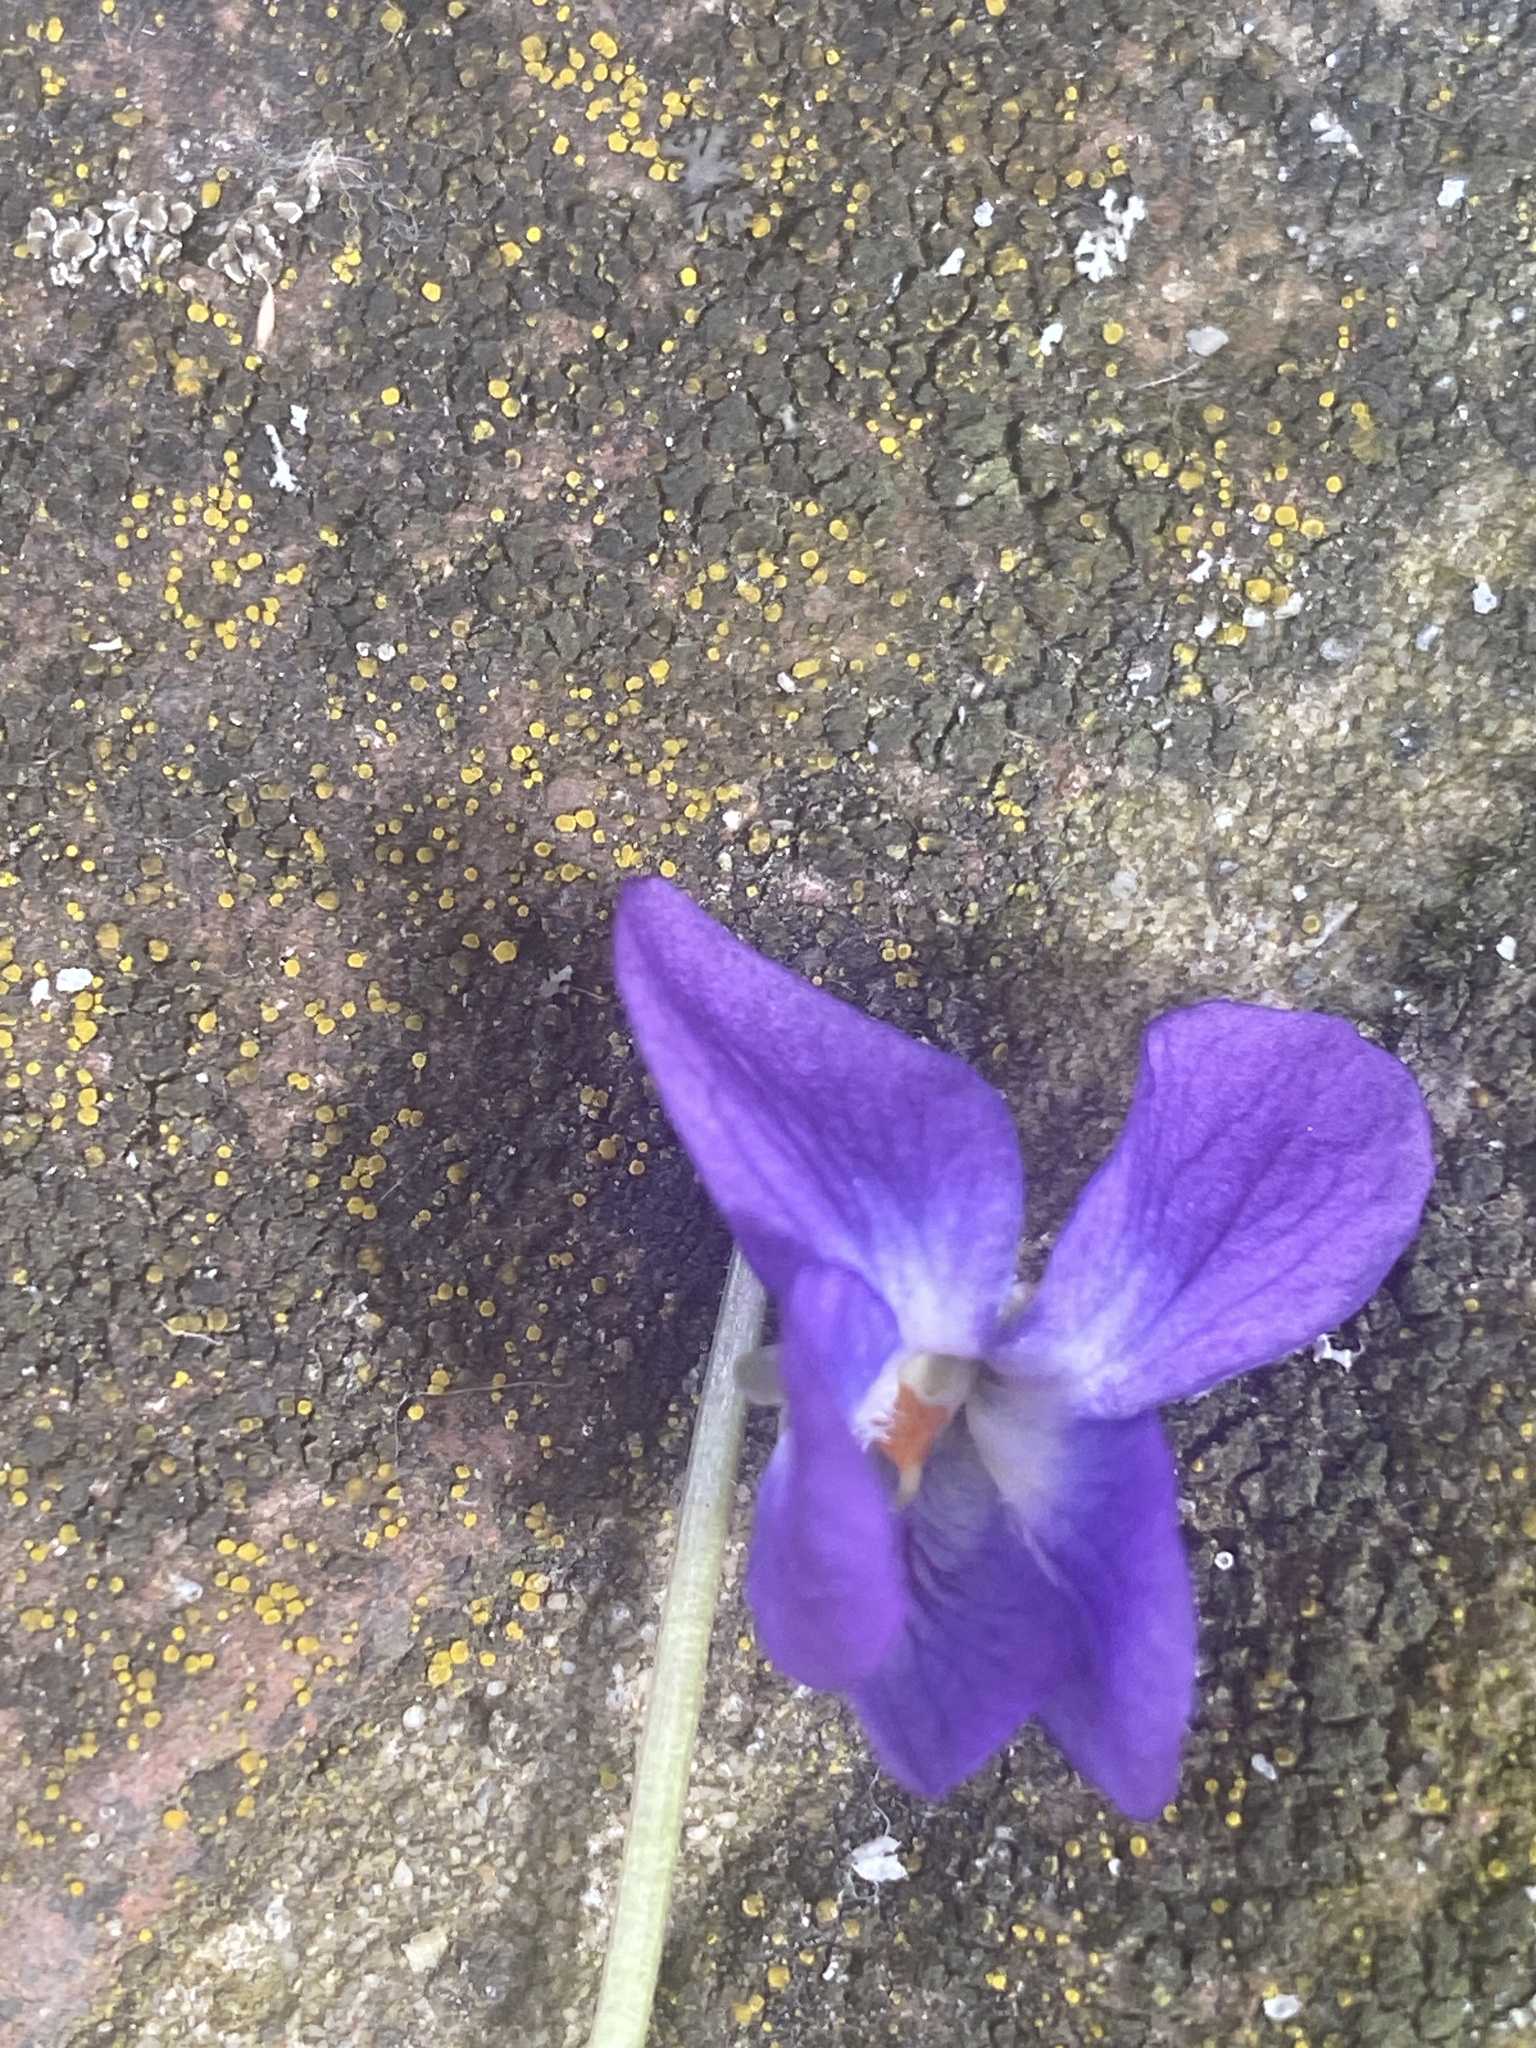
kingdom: Plantae
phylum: Tracheophyta
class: Magnoliopsida
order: Malpighiales
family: Violaceae
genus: Viola
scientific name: Viola odorata
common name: Sweet violet
